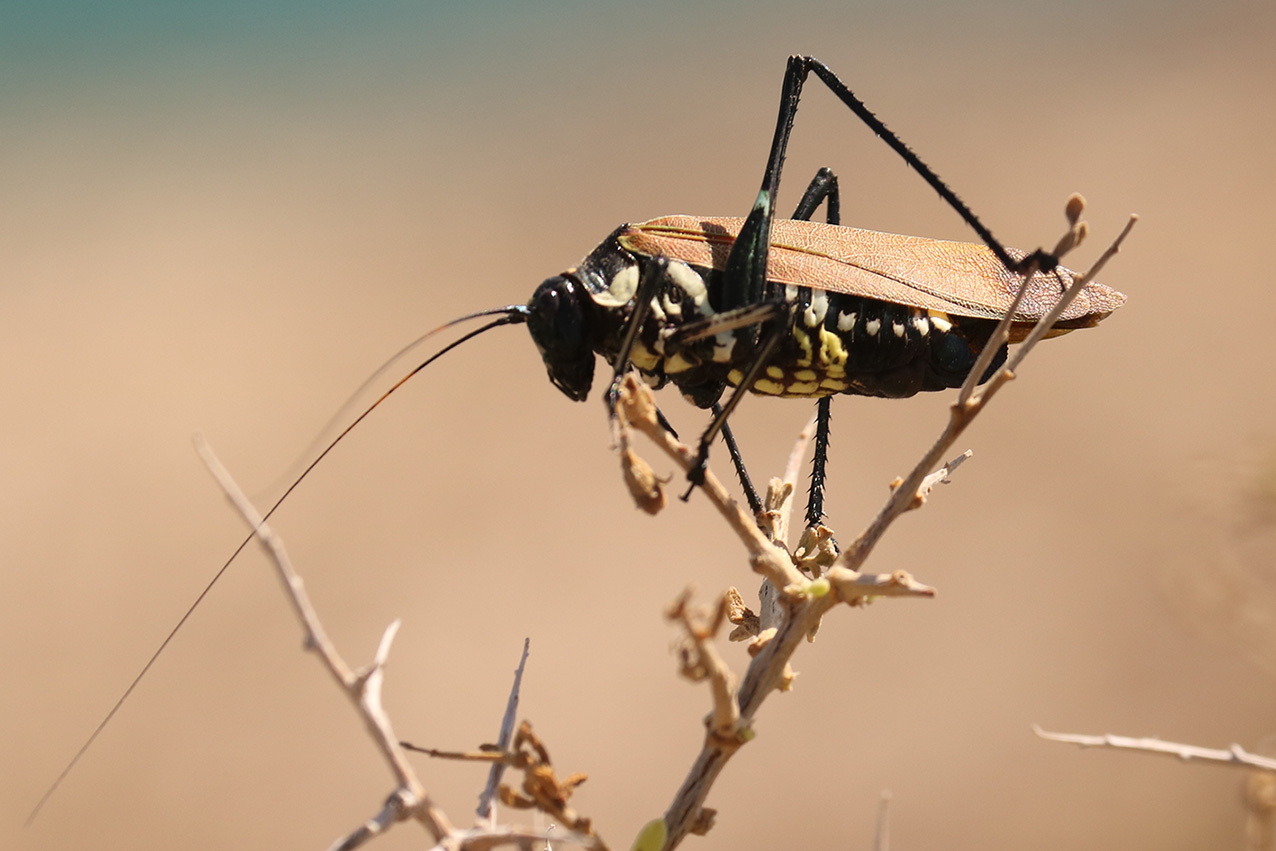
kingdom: Animalia
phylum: Arthropoda
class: Insecta
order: Orthoptera
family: Tettigoniidae
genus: Scaphura
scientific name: Scaphura elegans
